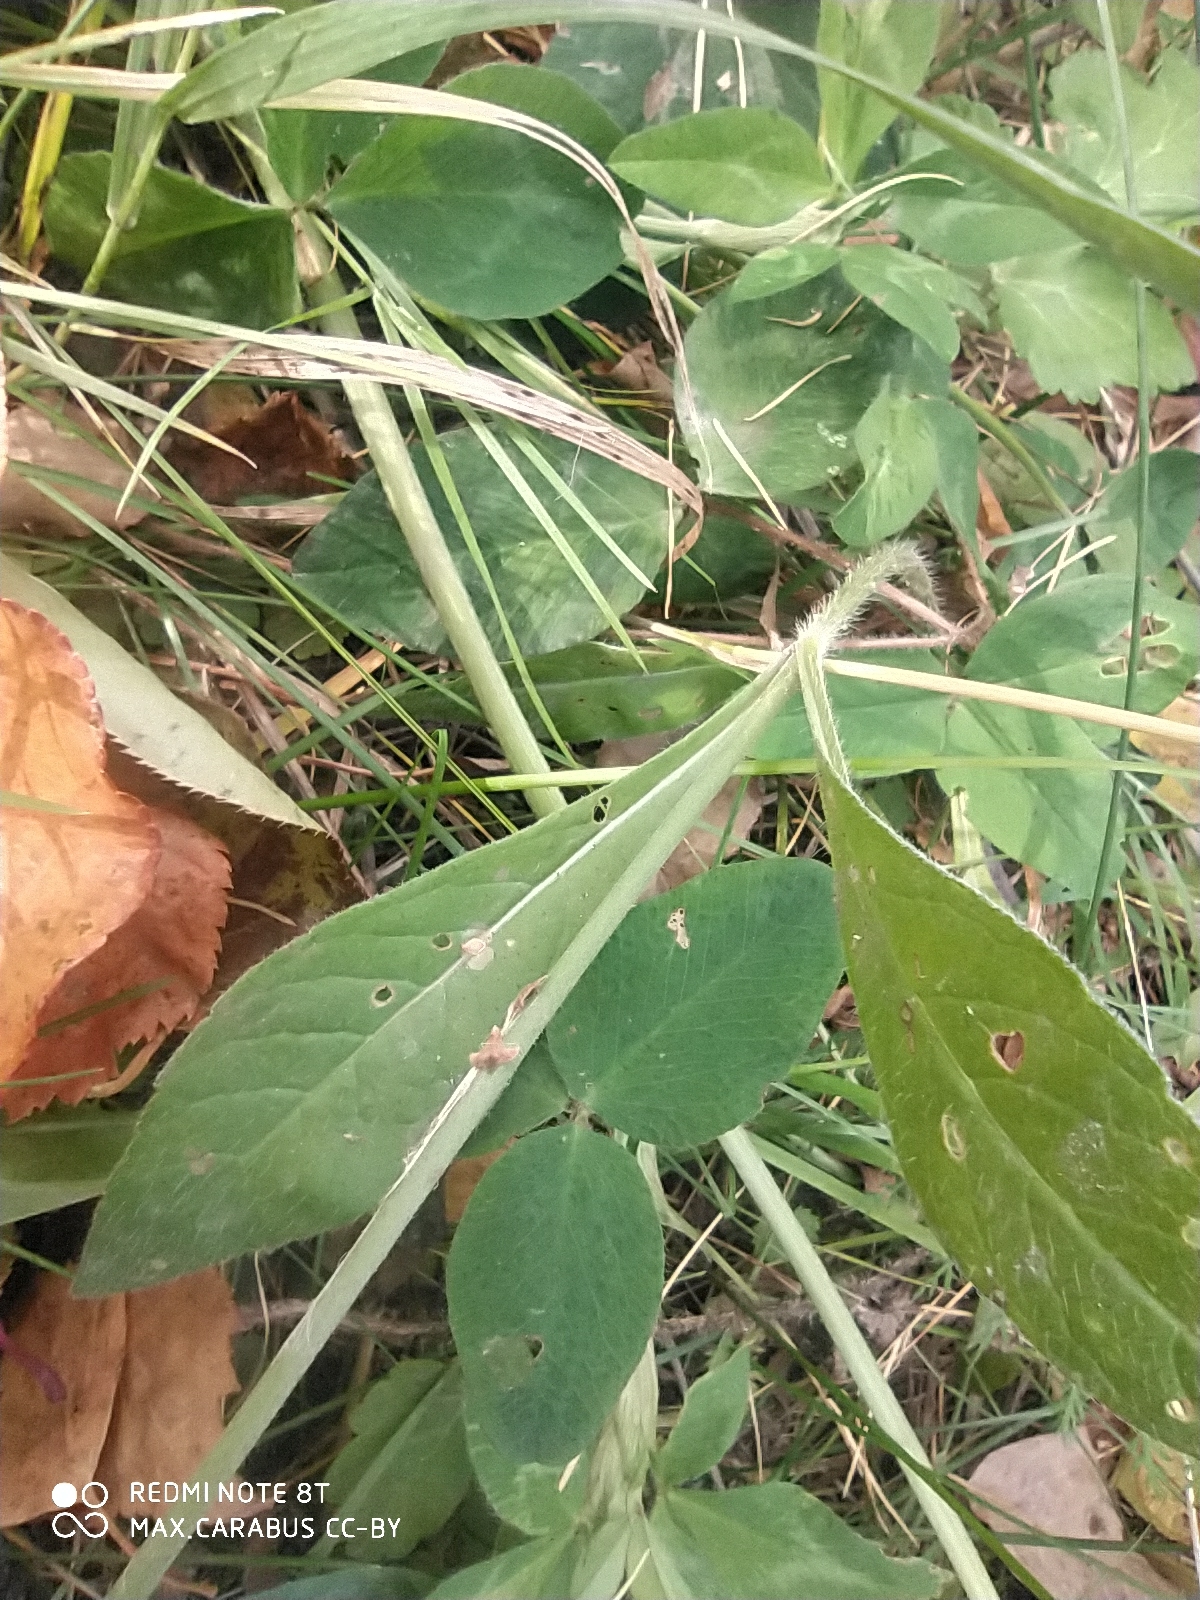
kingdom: Plantae
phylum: Tracheophyta
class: Magnoliopsida
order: Dipsacales
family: Caprifoliaceae
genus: Knautia
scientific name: Knautia arvensis
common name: Field scabiosa
